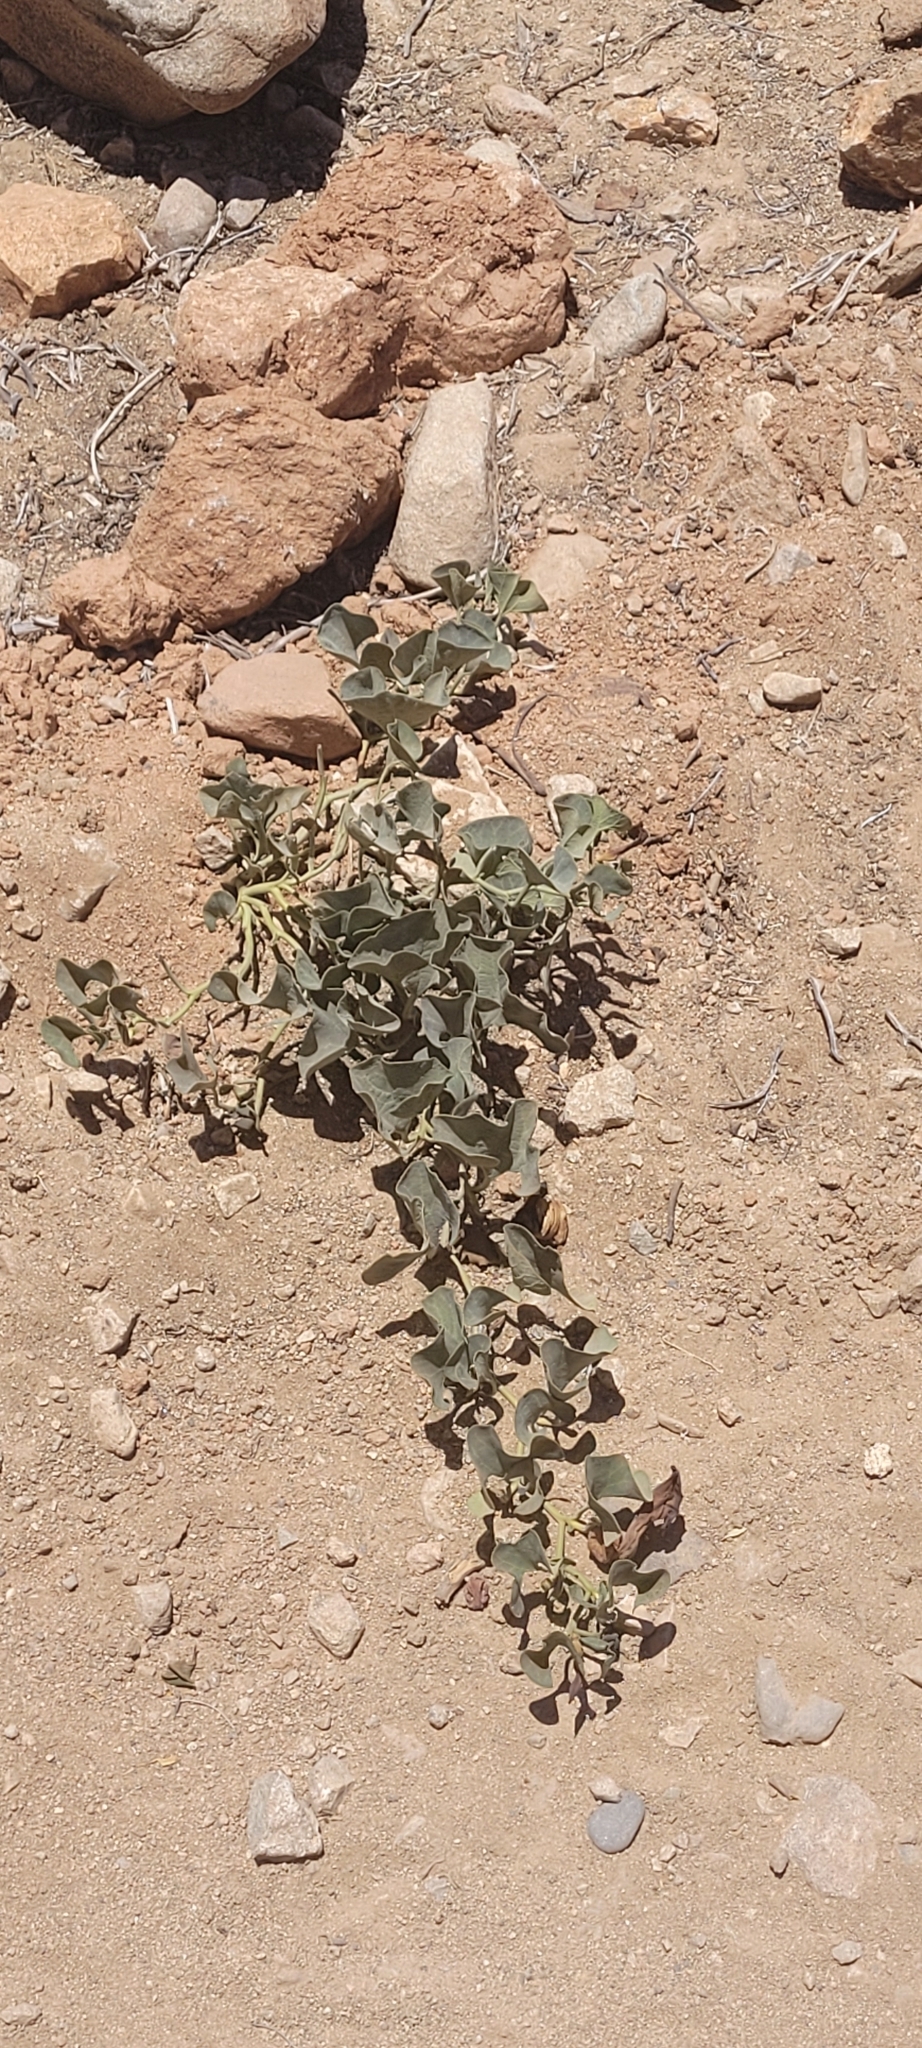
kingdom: Plantae
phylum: Tracheophyta
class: Magnoliopsida
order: Piperales
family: Aristolochiaceae
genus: Aristolochia
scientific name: Aristolochia chilensis
